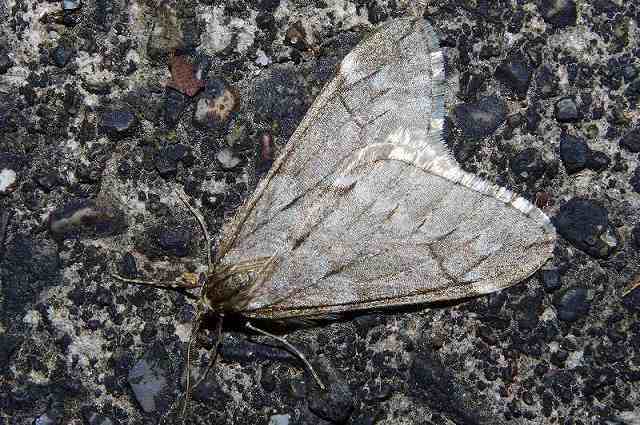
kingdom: Animalia
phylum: Arthropoda
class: Insecta
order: Lepidoptera
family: Geometridae
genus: Alsophila
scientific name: Alsophila japonensis
